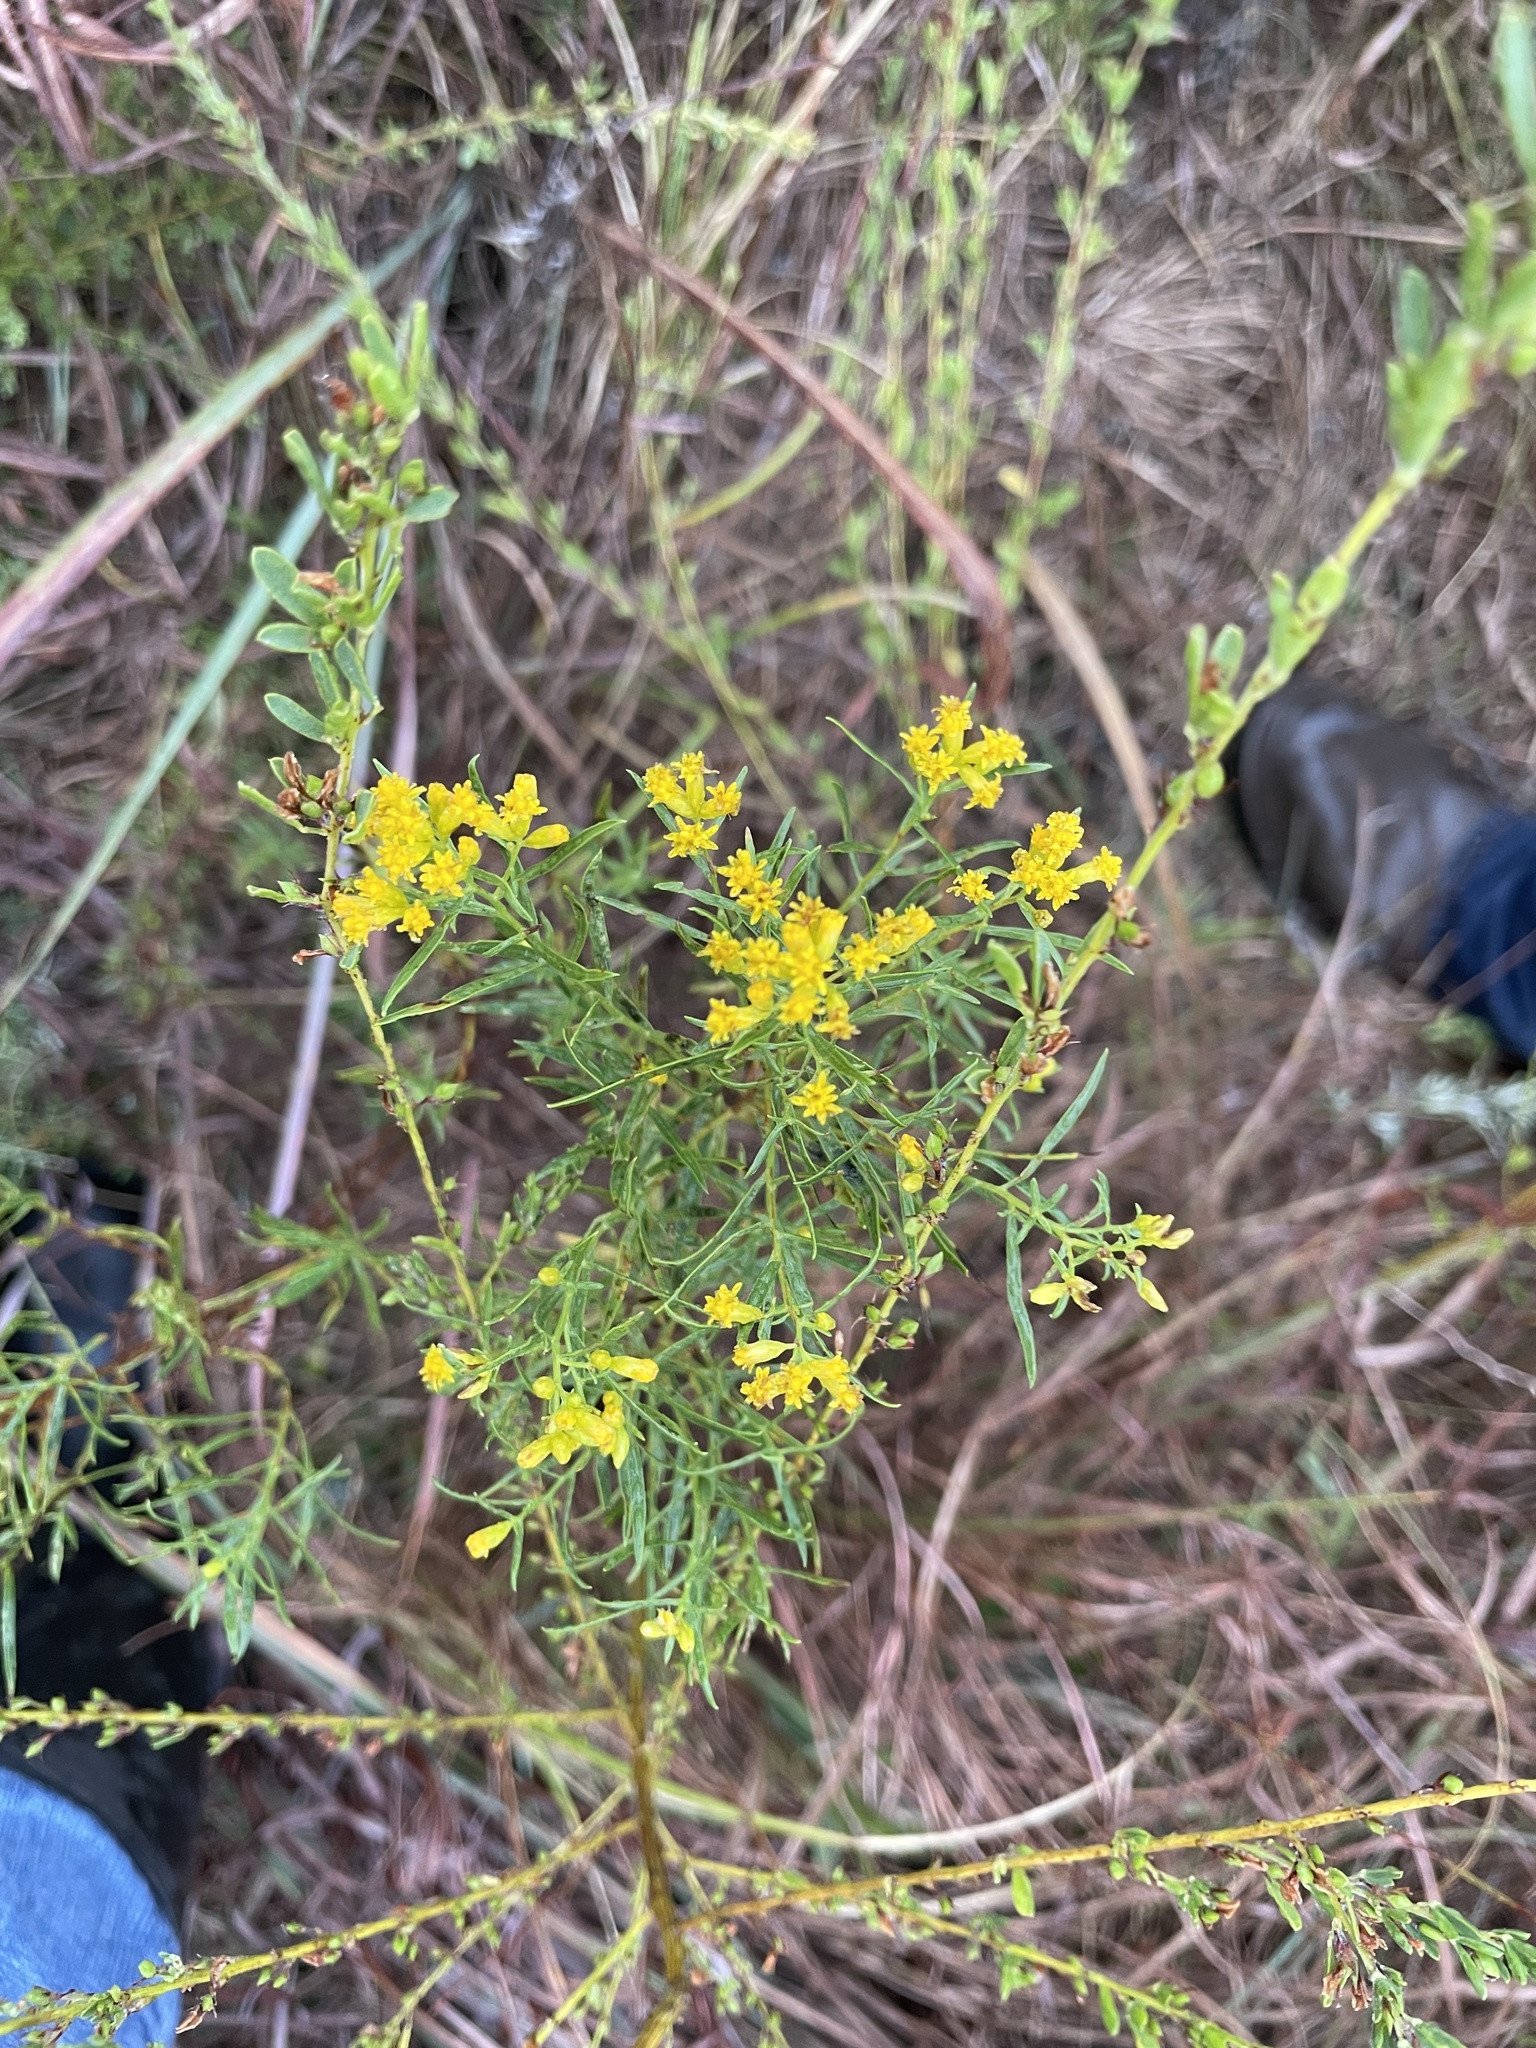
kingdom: Plantae
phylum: Tracheophyta
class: Magnoliopsida
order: Asterales
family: Asteraceae
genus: Euthamia
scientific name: Euthamia gymnospermoides
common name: Great plains goldentop
